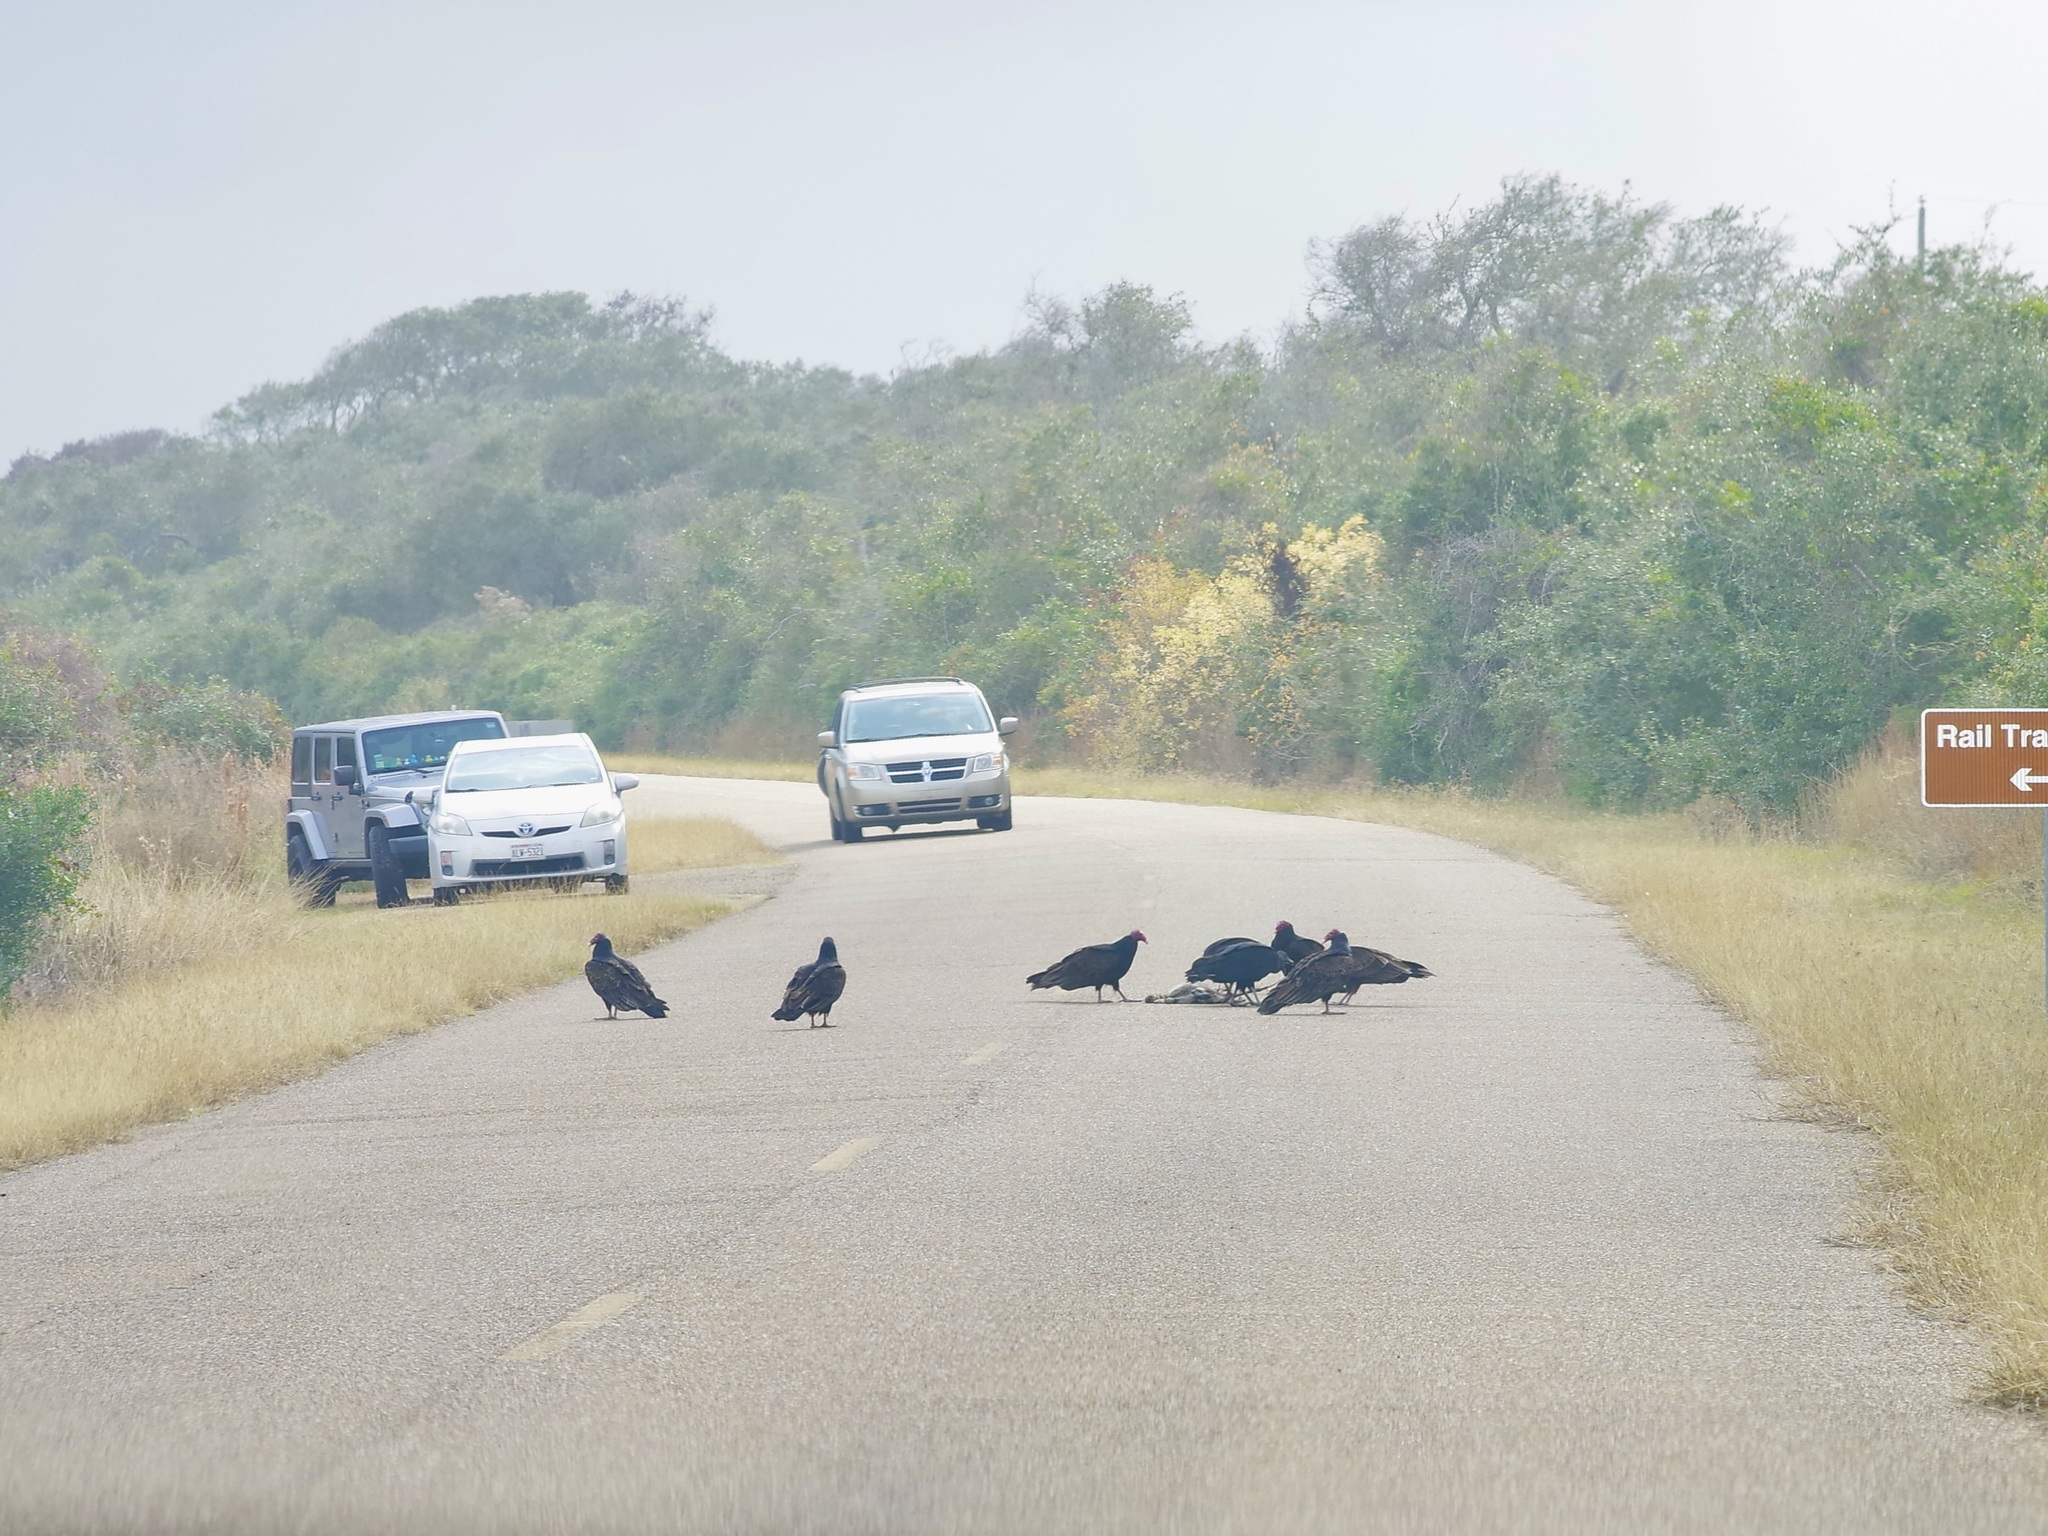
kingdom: Animalia
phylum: Chordata
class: Aves
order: Accipitriformes
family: Cathartidae
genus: Cathartes
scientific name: Cathartes aura
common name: Turkey vulture
